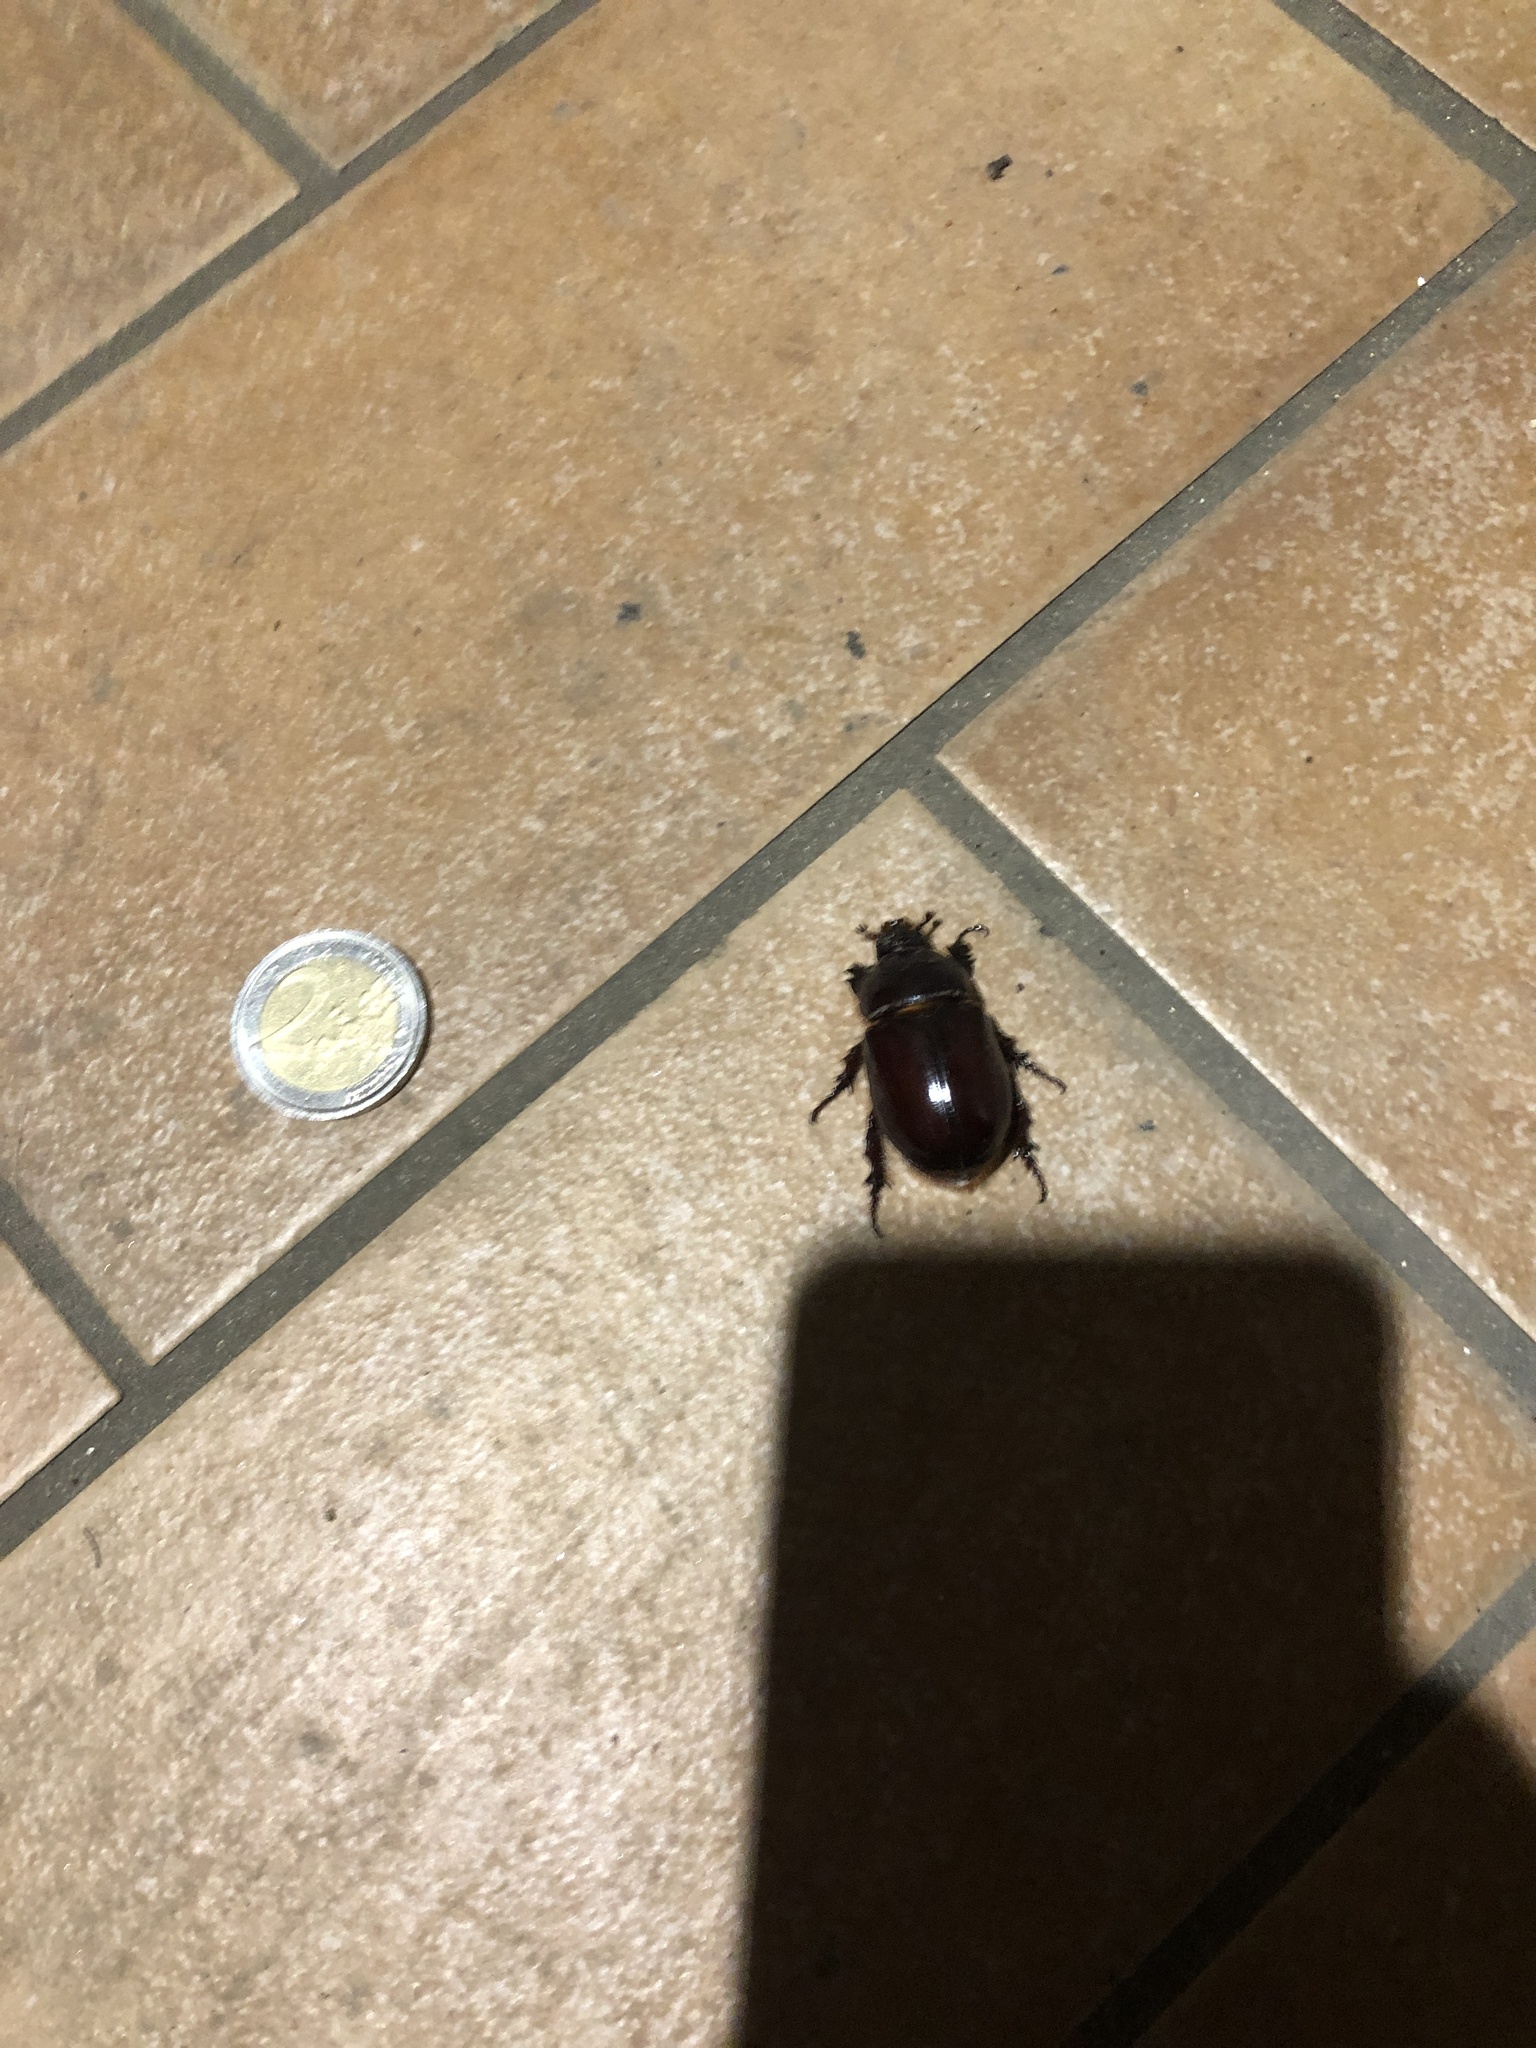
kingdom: Animalia
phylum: Arthropoda
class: Insecta
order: Coleoptera
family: Scarabaeidae
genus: Oryctes
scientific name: Oryctes nasicornis
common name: European rhinoceros beetle
